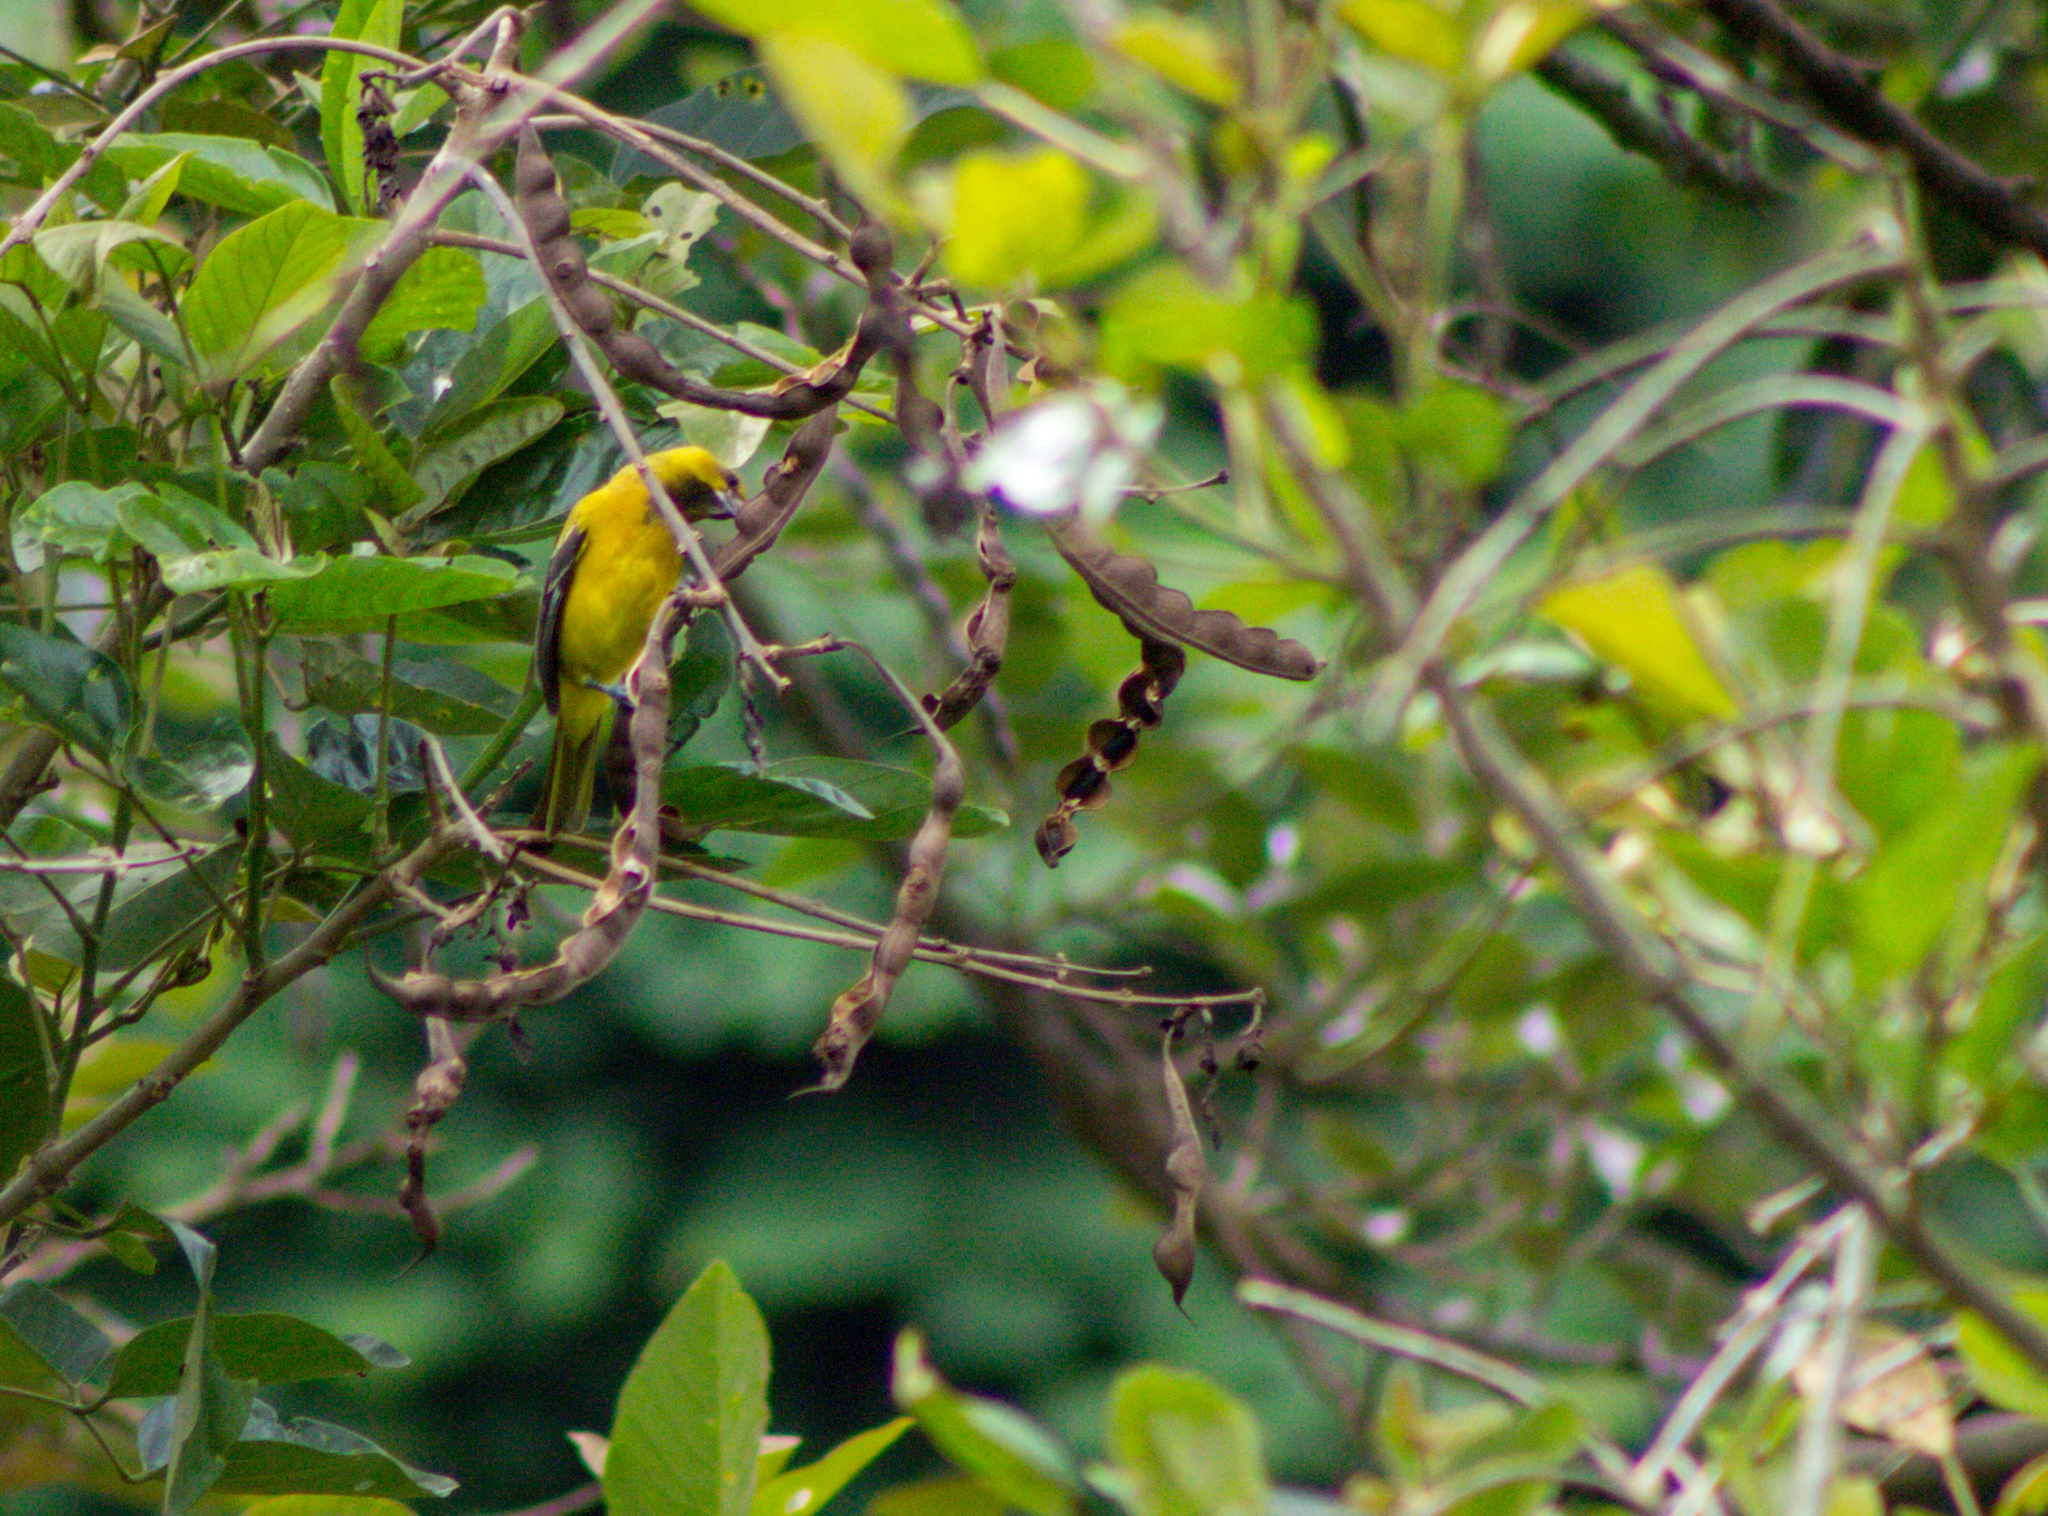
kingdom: Animalia
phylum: Chordata
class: Aves
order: Passeriformes
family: Icteridae
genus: Icterus
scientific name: Icterus nigrogularis
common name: Yellow oriole
